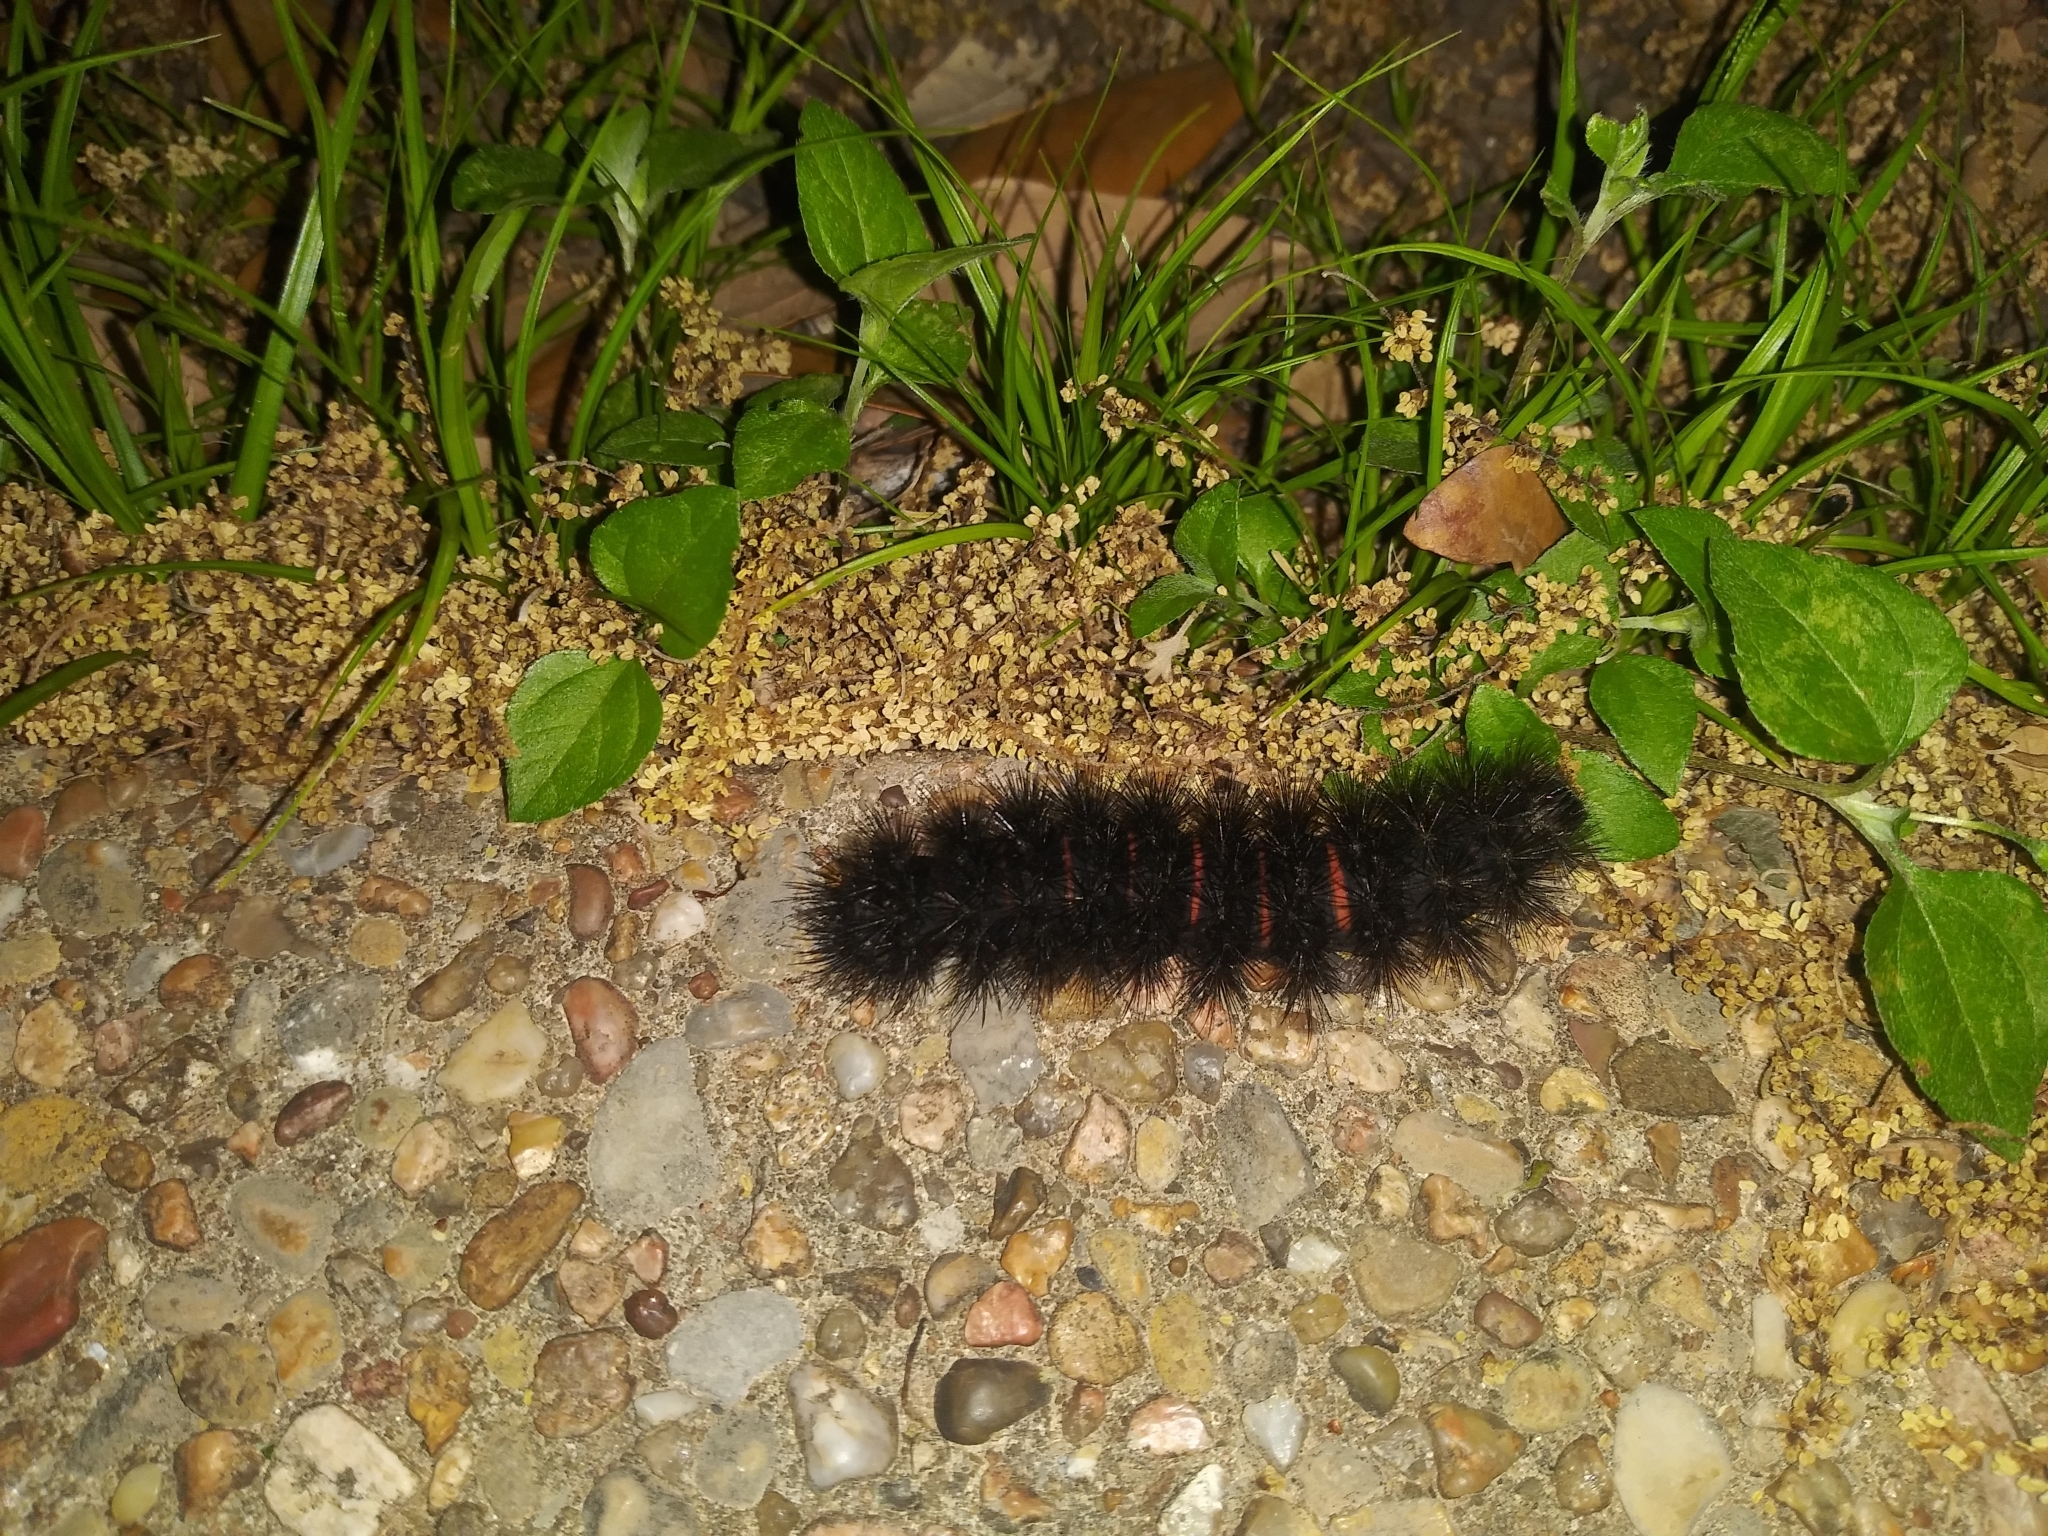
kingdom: Animalia
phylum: Arthropoda
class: Insecta
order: Lepidoptera
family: Erebidae
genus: Hypercompe
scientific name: Hypercompe scribonia
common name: Giant leopard moth
